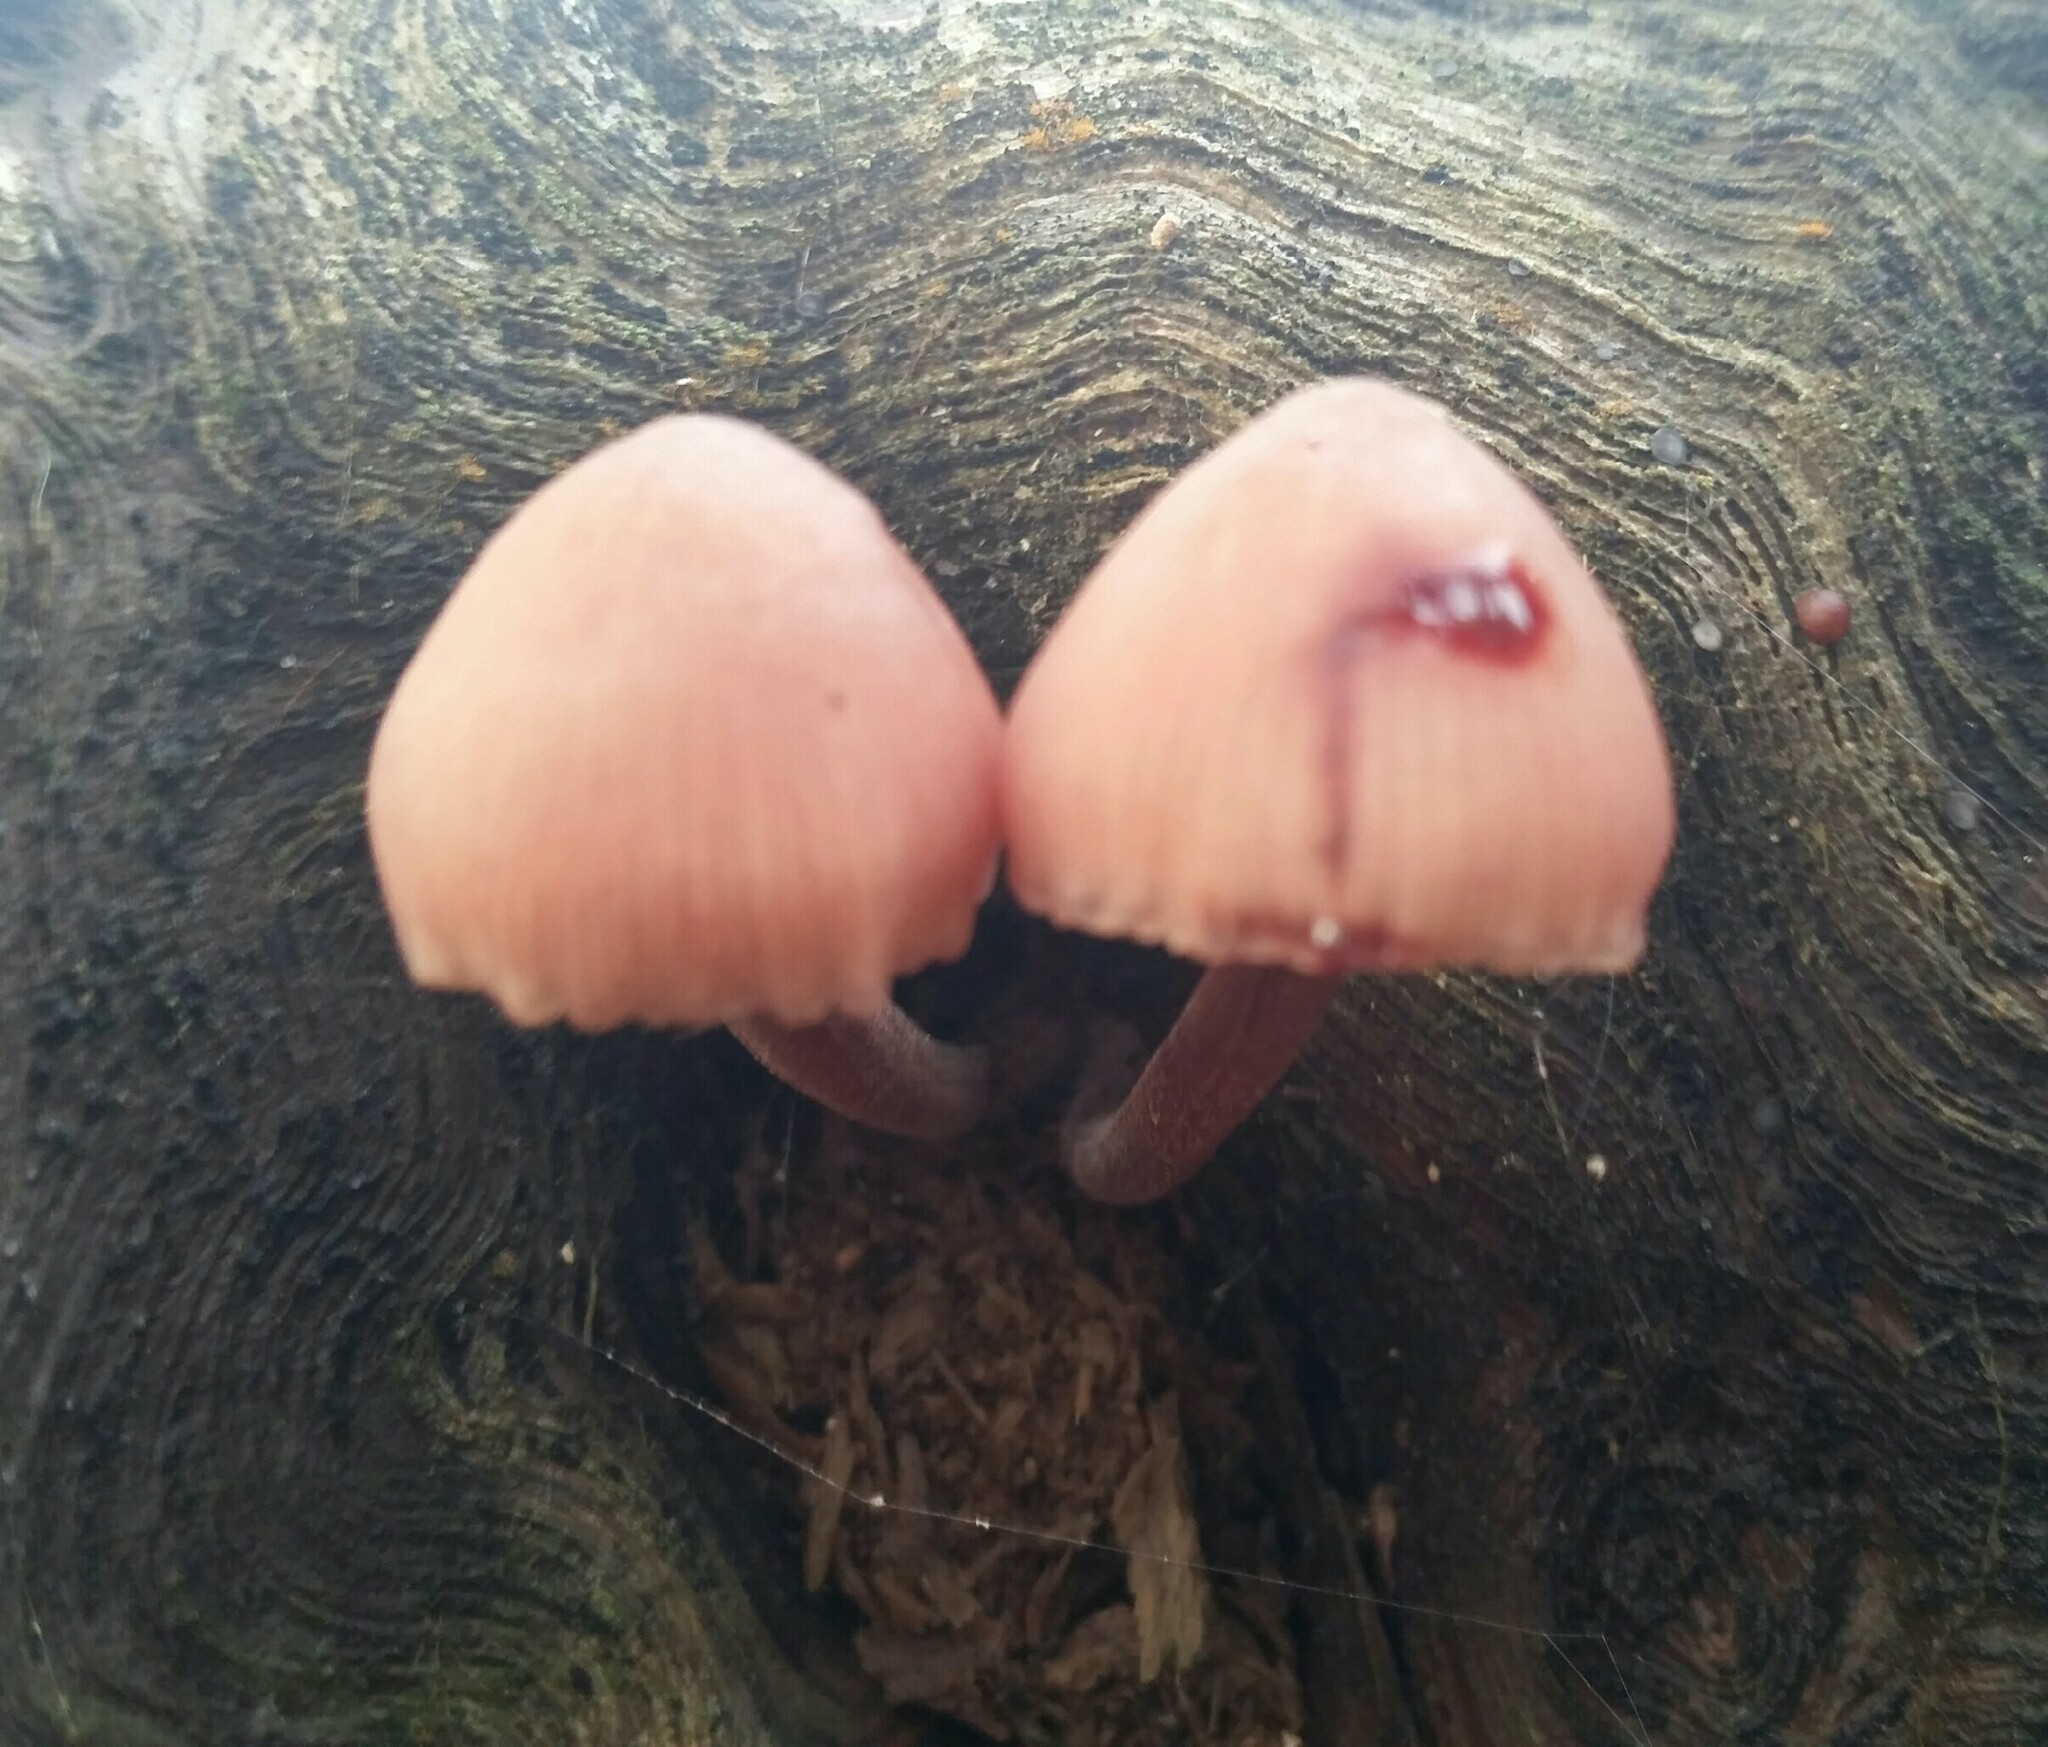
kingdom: Fungi
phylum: Basidiomycota
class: Agaricomycetes
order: Agaricales
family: Mycenaceae
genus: Mycena
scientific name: Mycena haematopus
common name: Burgundydrop bonnet
